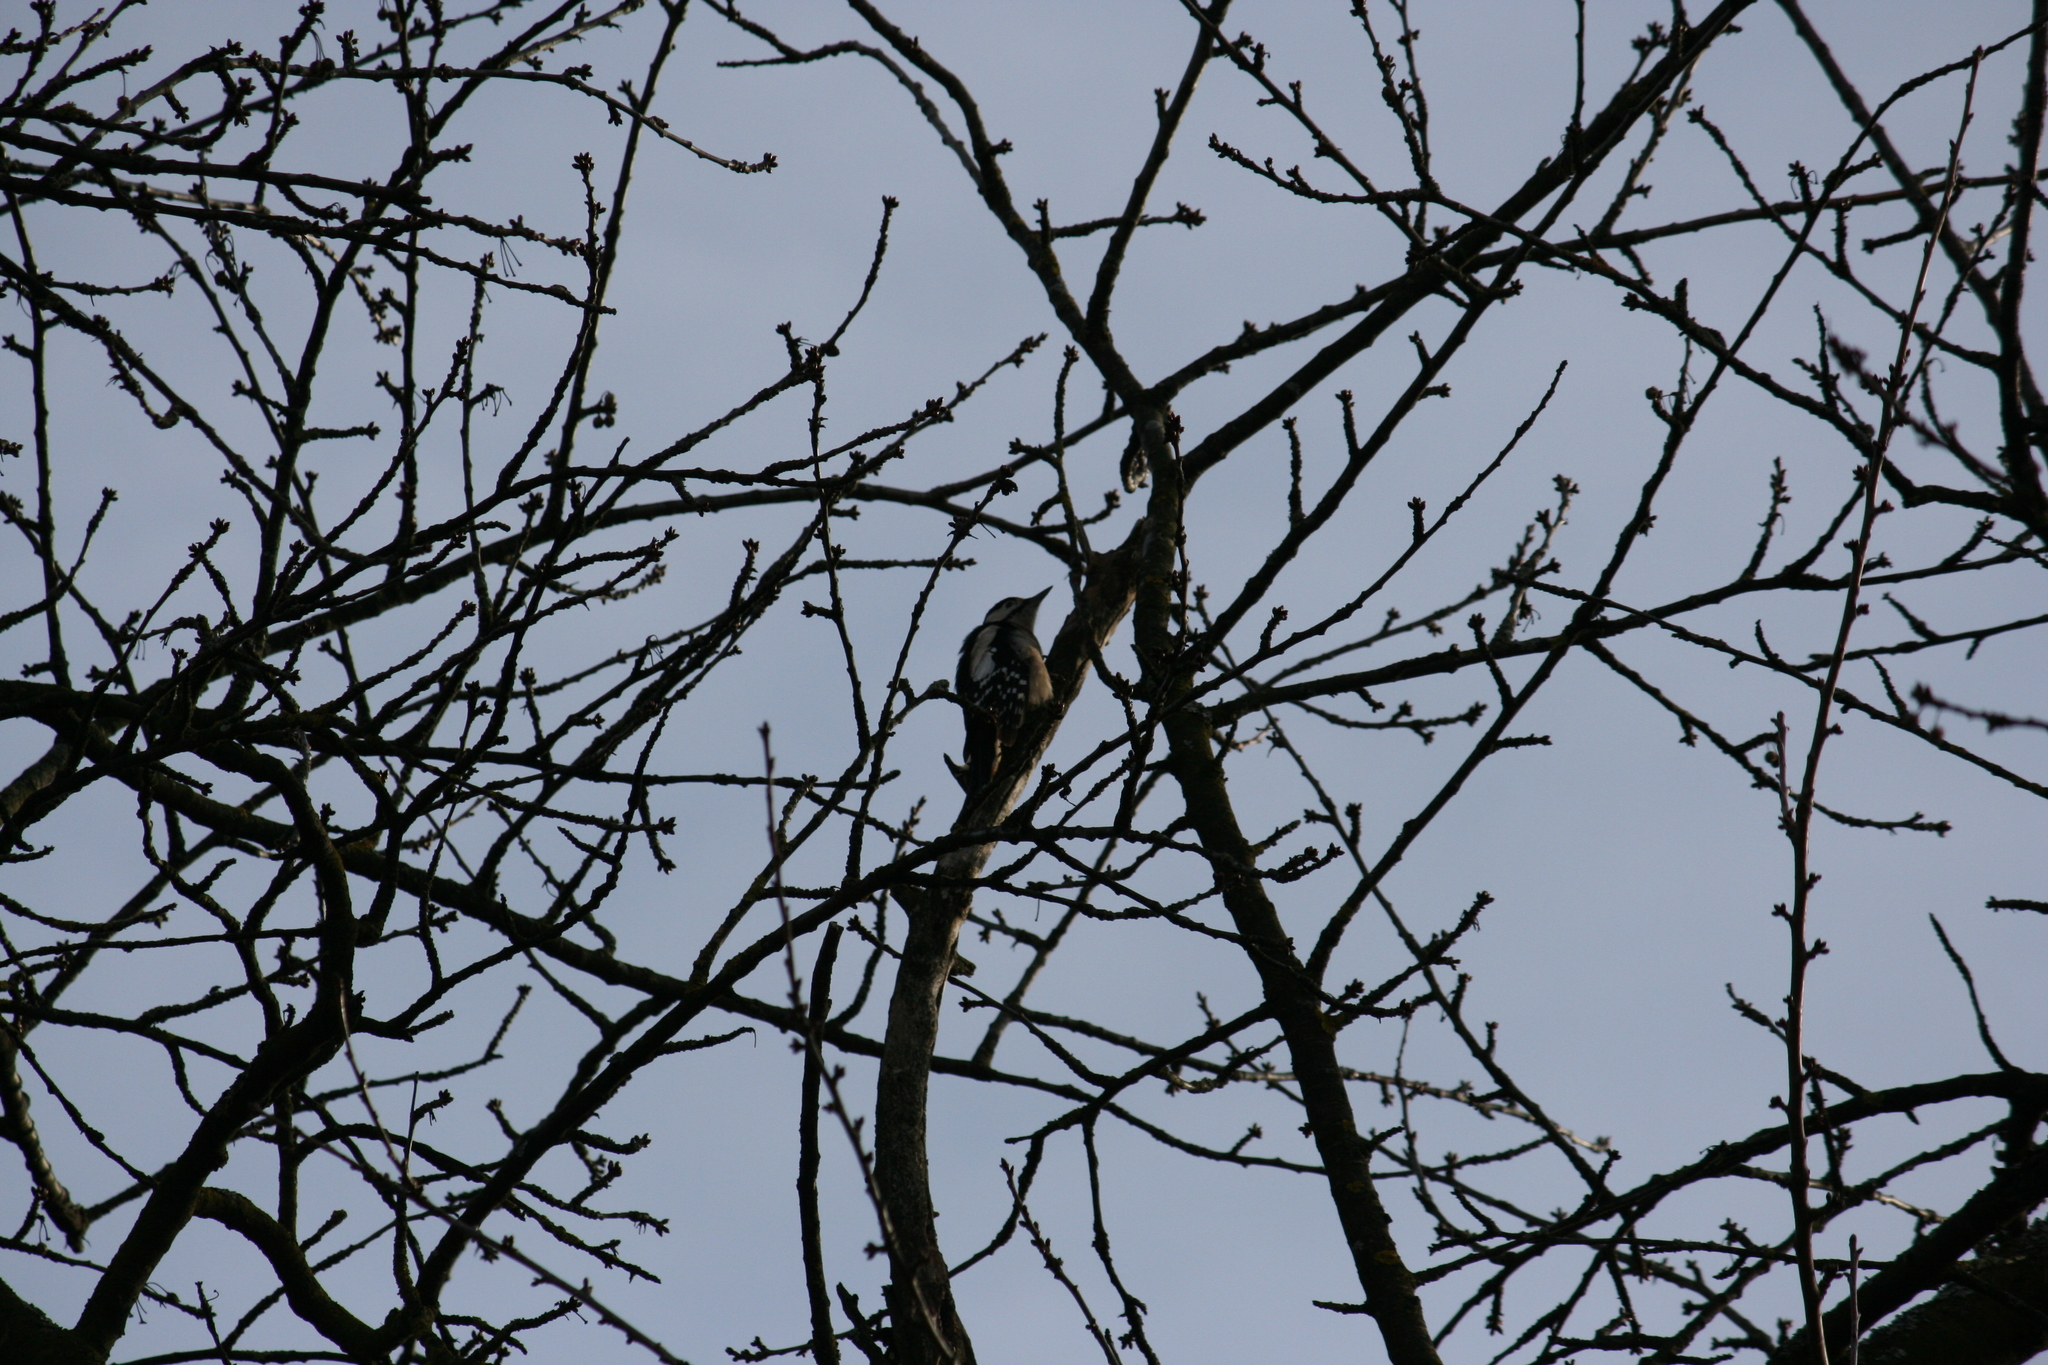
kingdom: Animalia
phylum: Chordata
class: Aves
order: Piciformes
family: Picidae
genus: Dendrocopos
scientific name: Dendrocopos major
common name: Great spotted woodpecker
